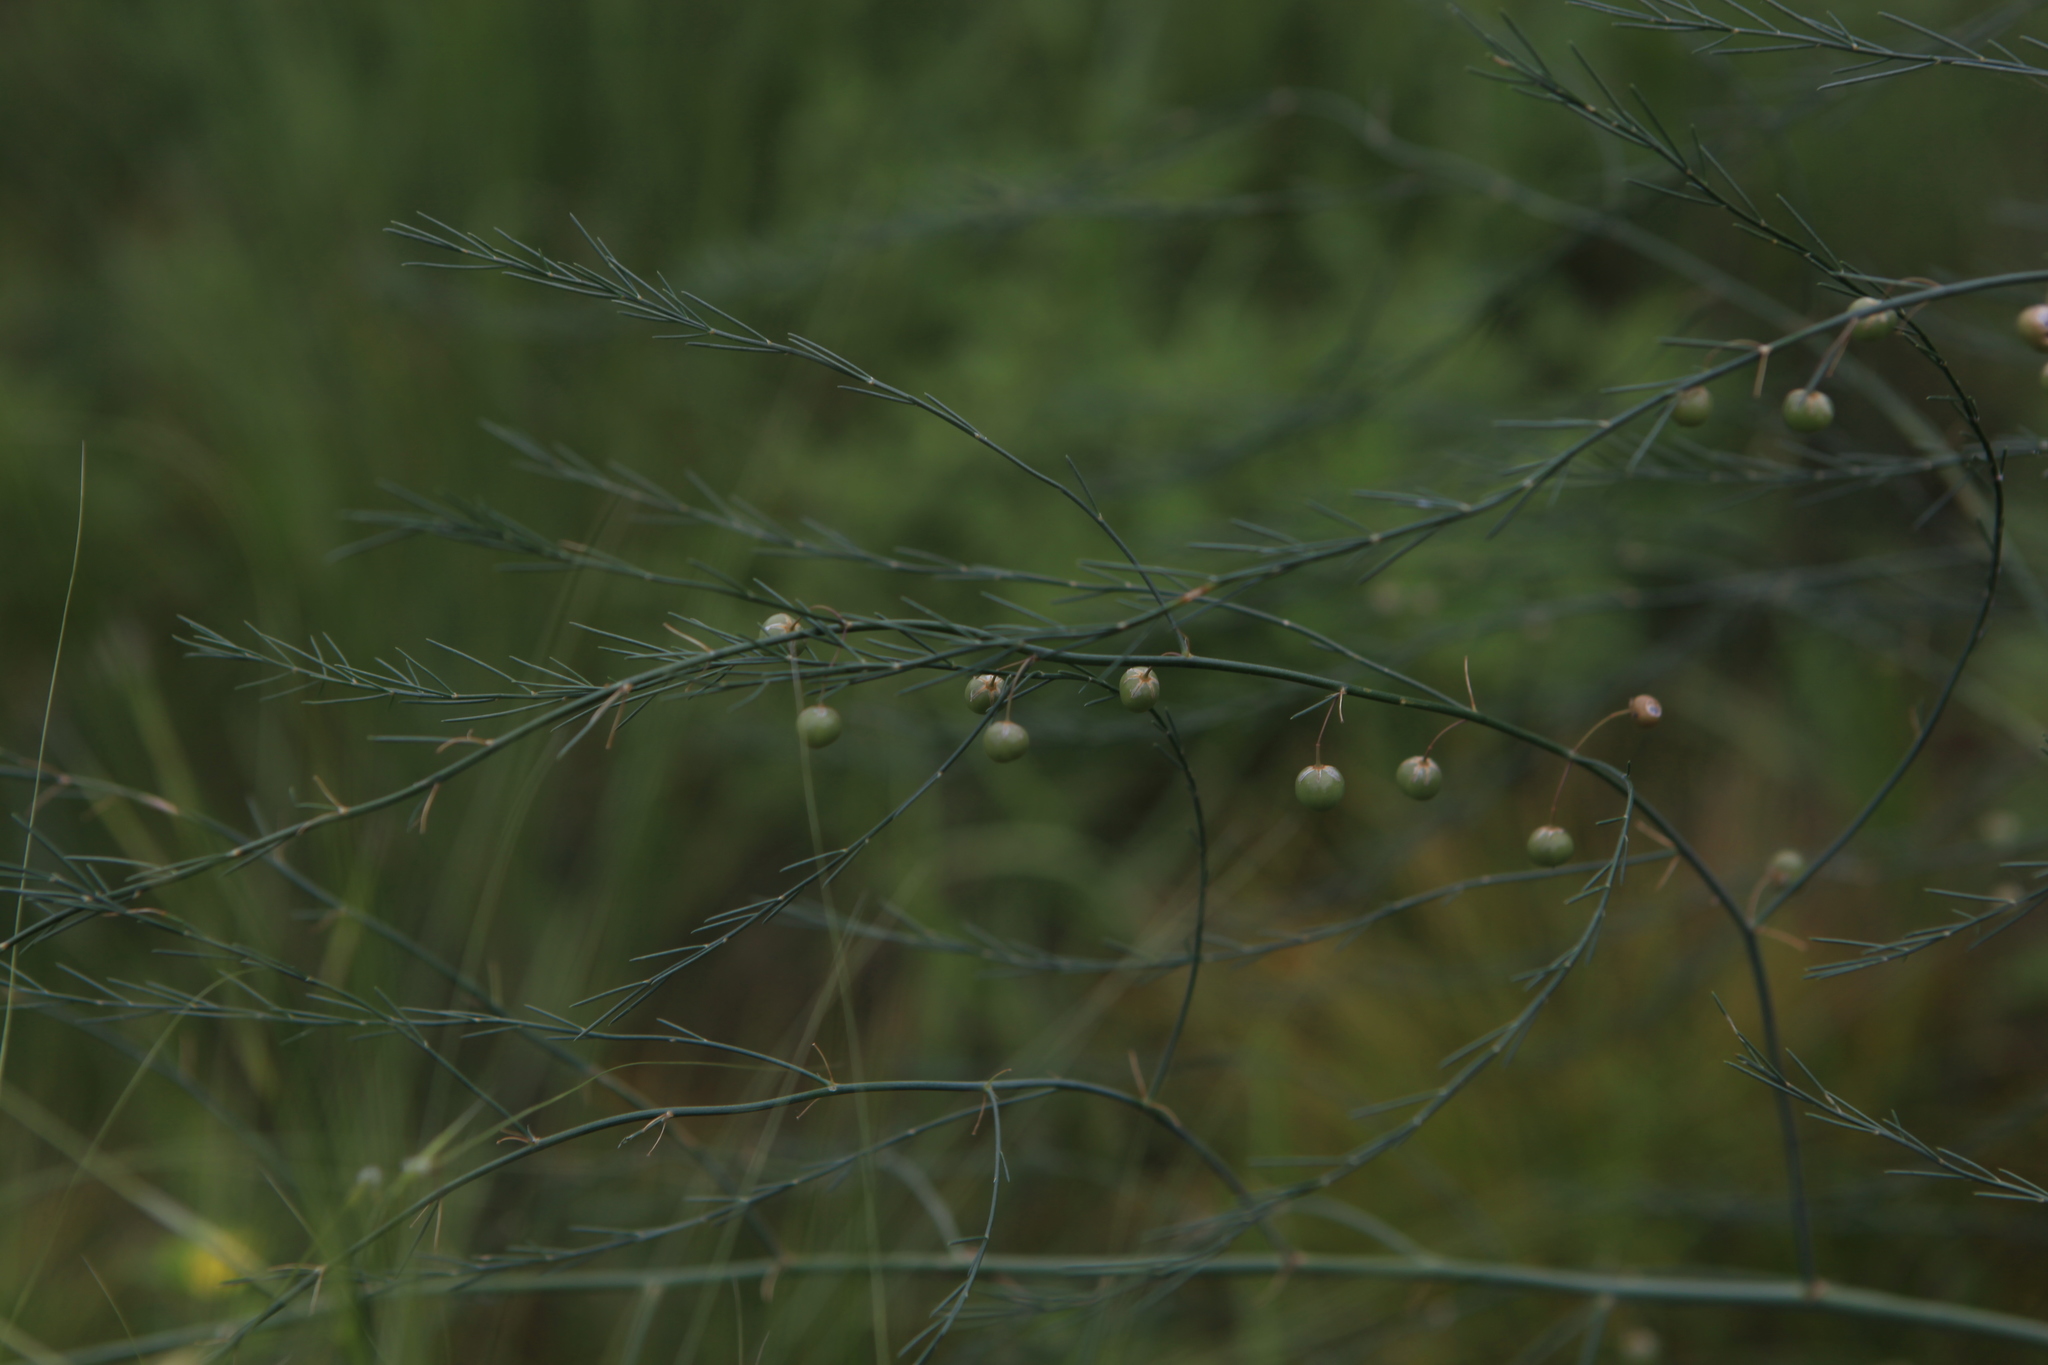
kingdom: Plantae
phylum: Tracheophyta
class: Liliopsida
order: Asparagales
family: Asparagaceae
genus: Asparagus
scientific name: Asparagus officinalis
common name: Garden asparagus
